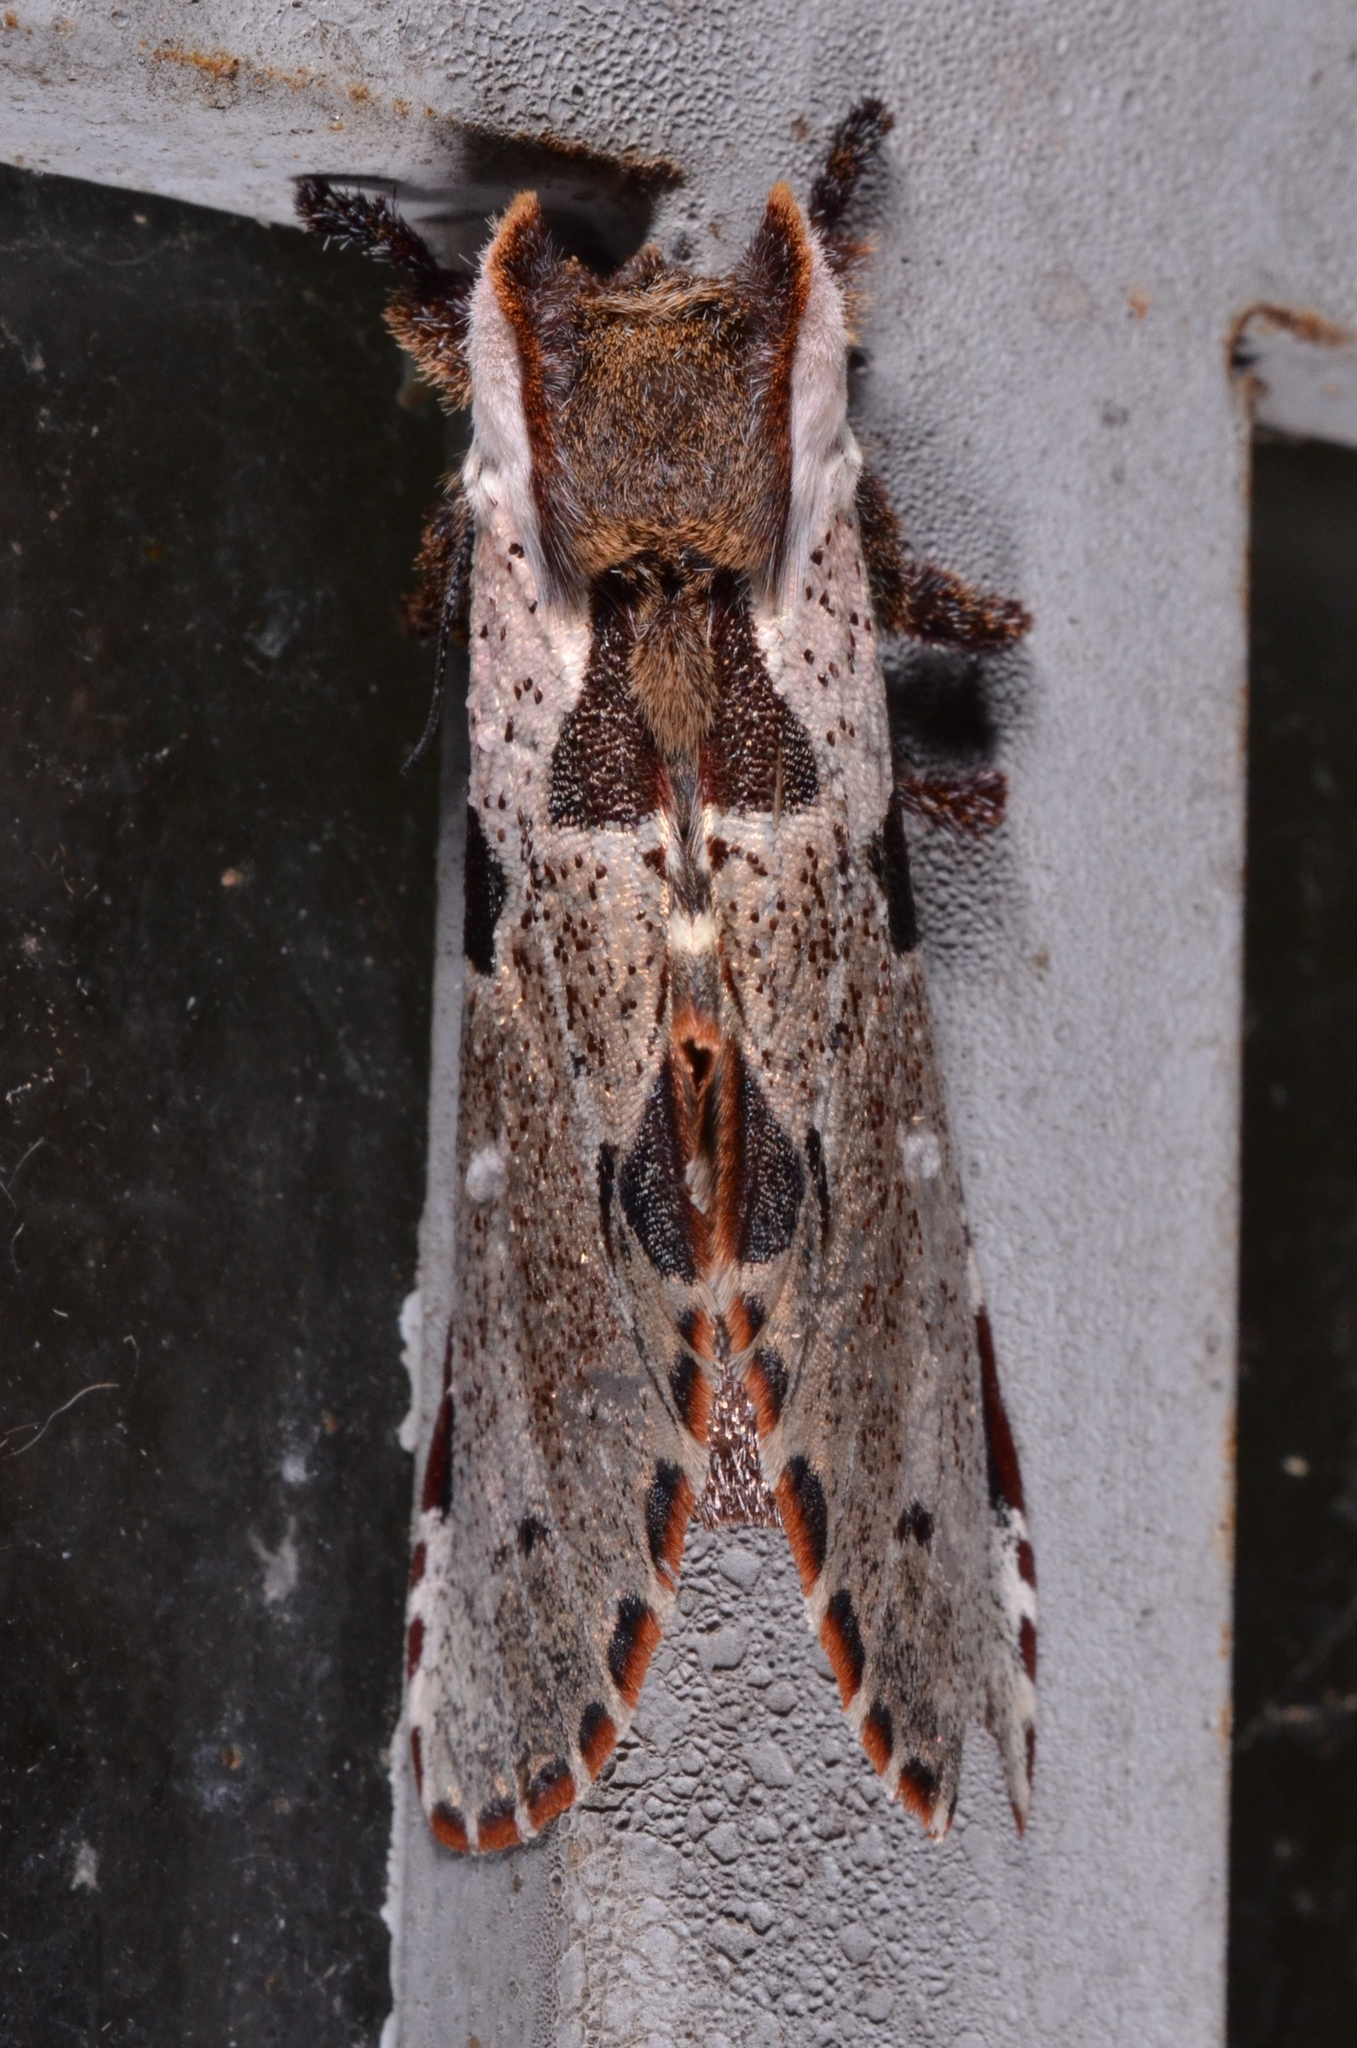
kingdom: Animalia
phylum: Arthropoda
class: Insecta
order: Lepidoptera
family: Notodontidae
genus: Harpyia
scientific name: Harpyia
